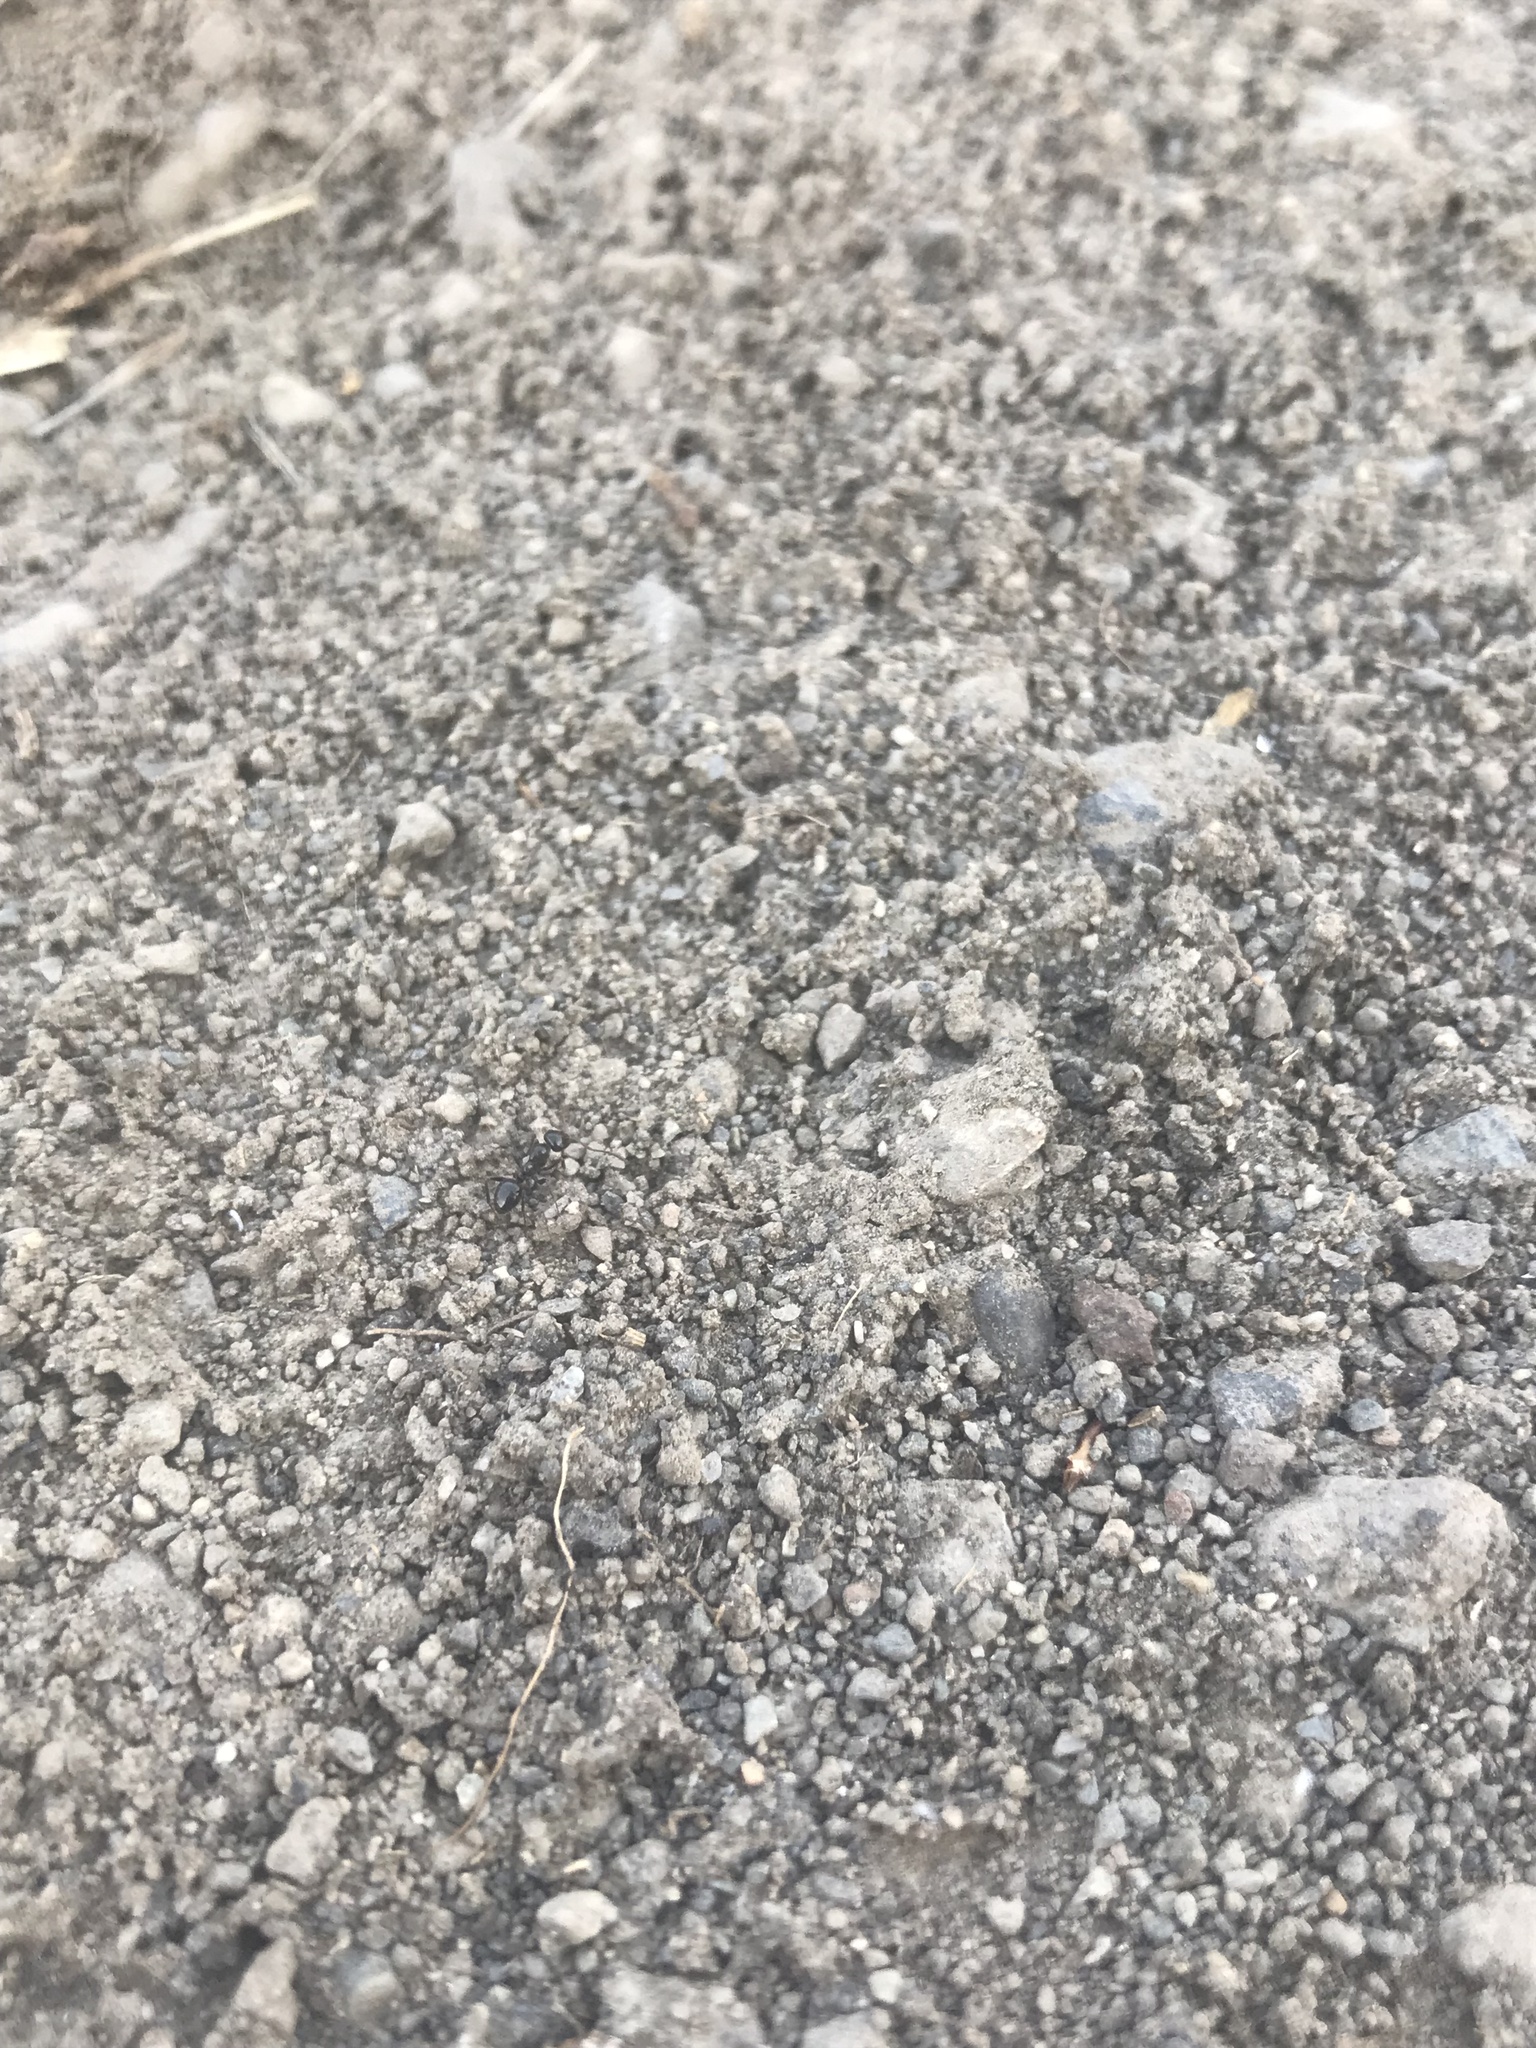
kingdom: Animalia
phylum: Arthropoda
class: Insecta
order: Hymenoptera
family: Formicidae
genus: Formica
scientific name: Formica
